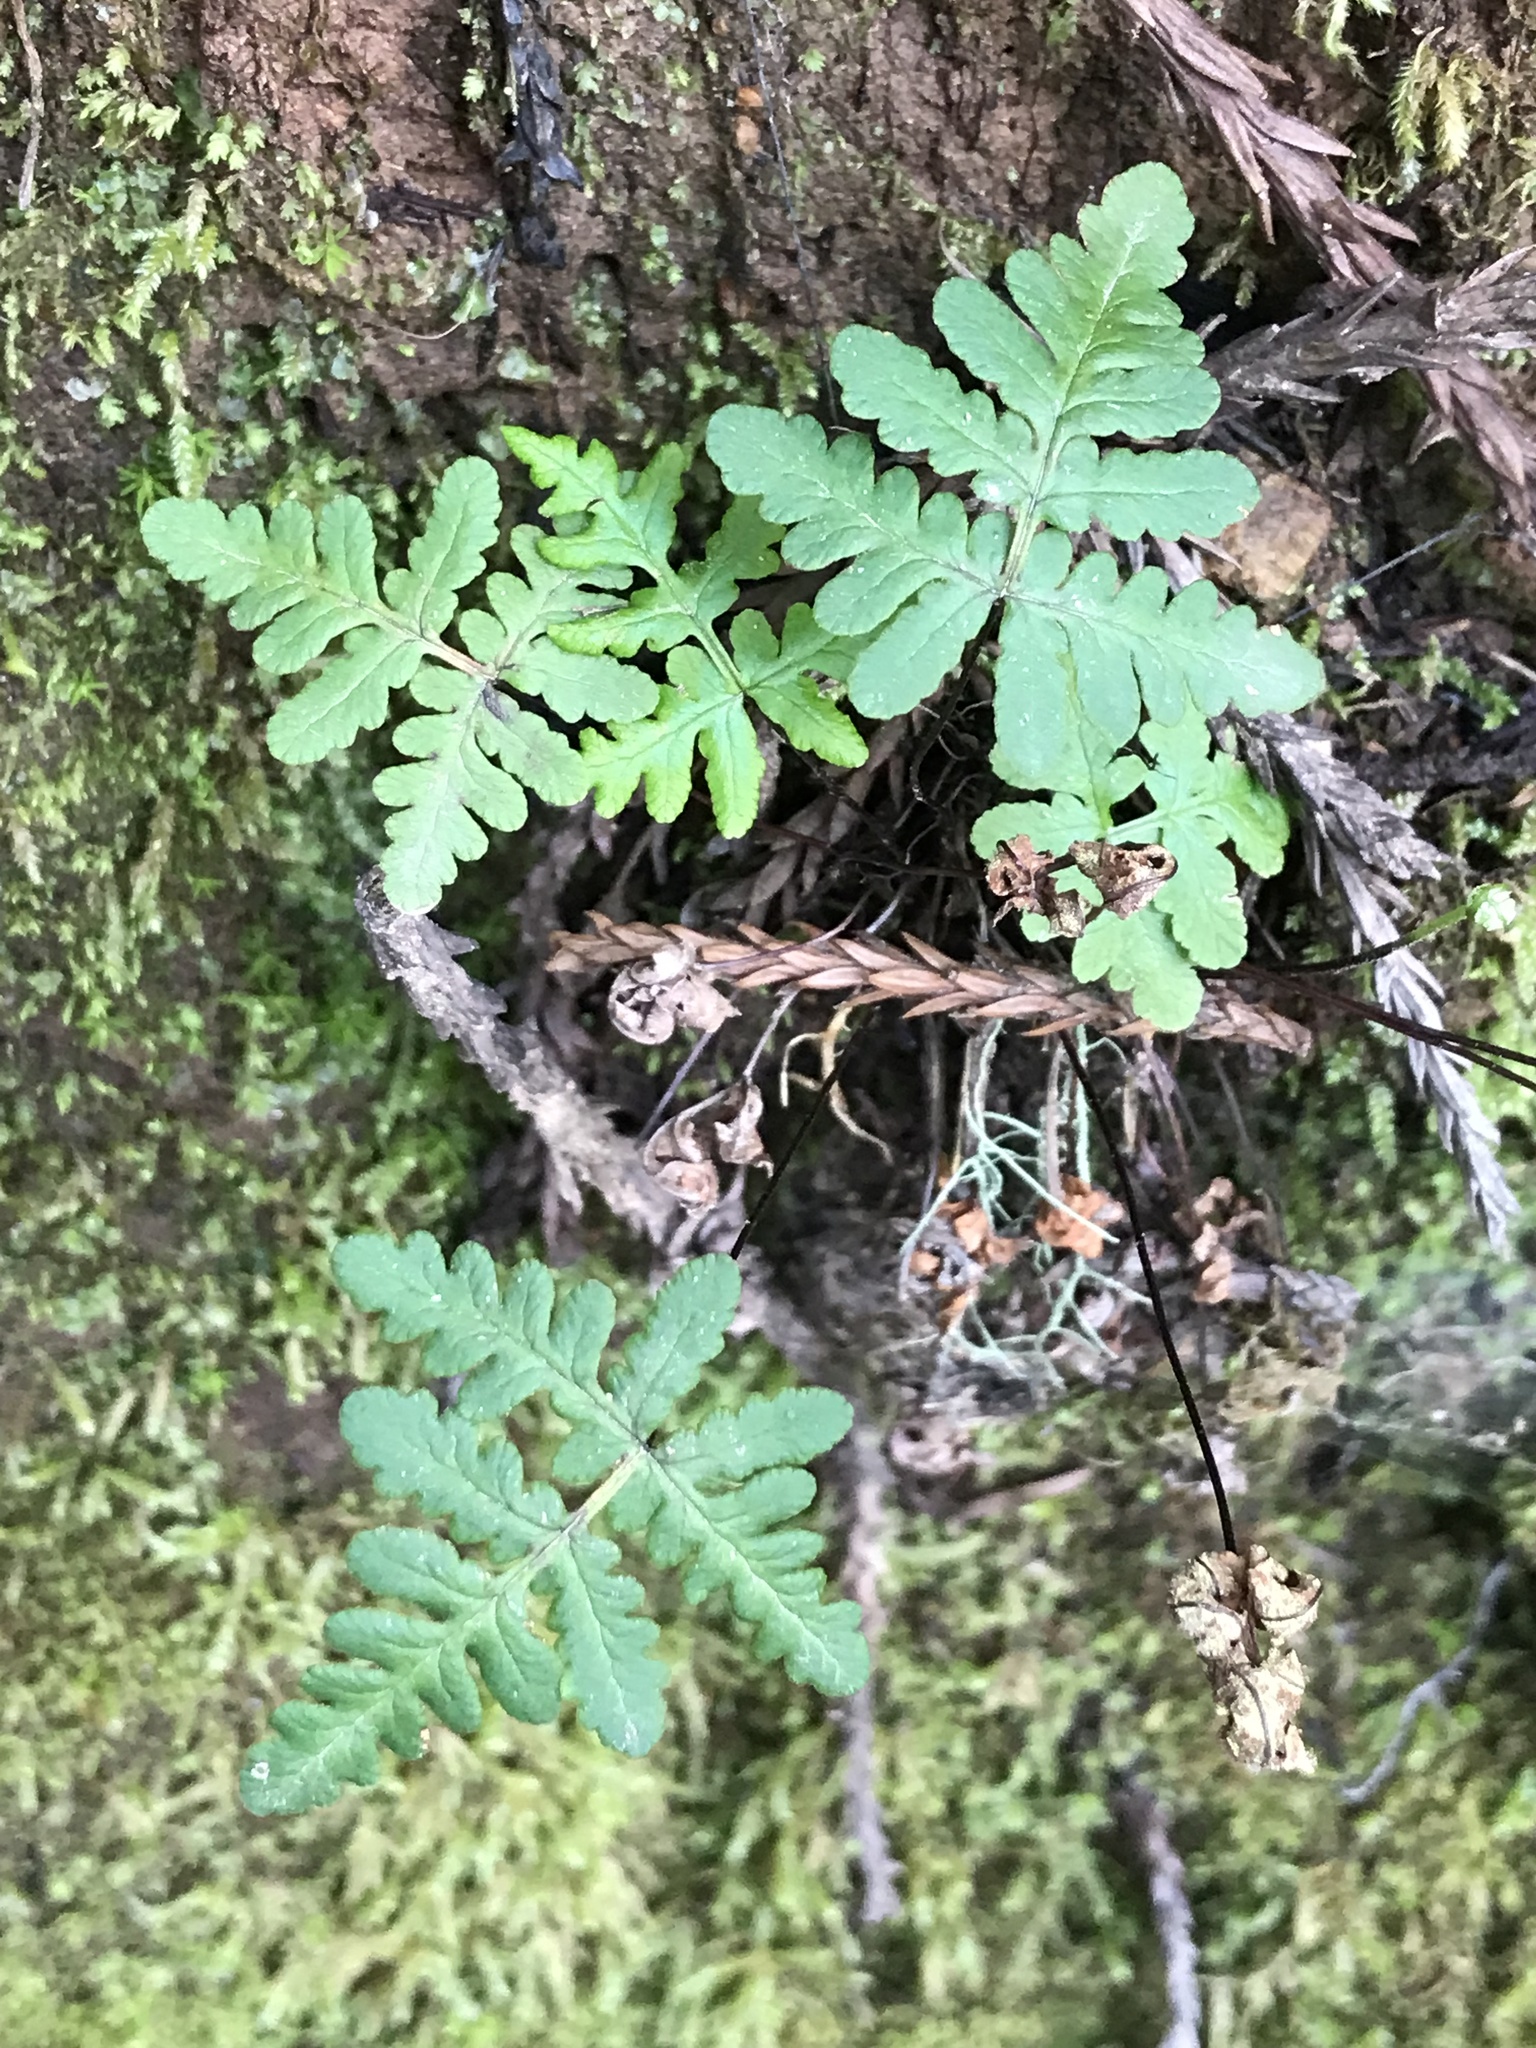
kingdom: Plantae
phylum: Tracheophyta
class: Polypodiopsida
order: Polypodiales
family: Pteridaceae
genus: Pentagramma
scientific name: Pentagramma triangularis
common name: Gold fern
